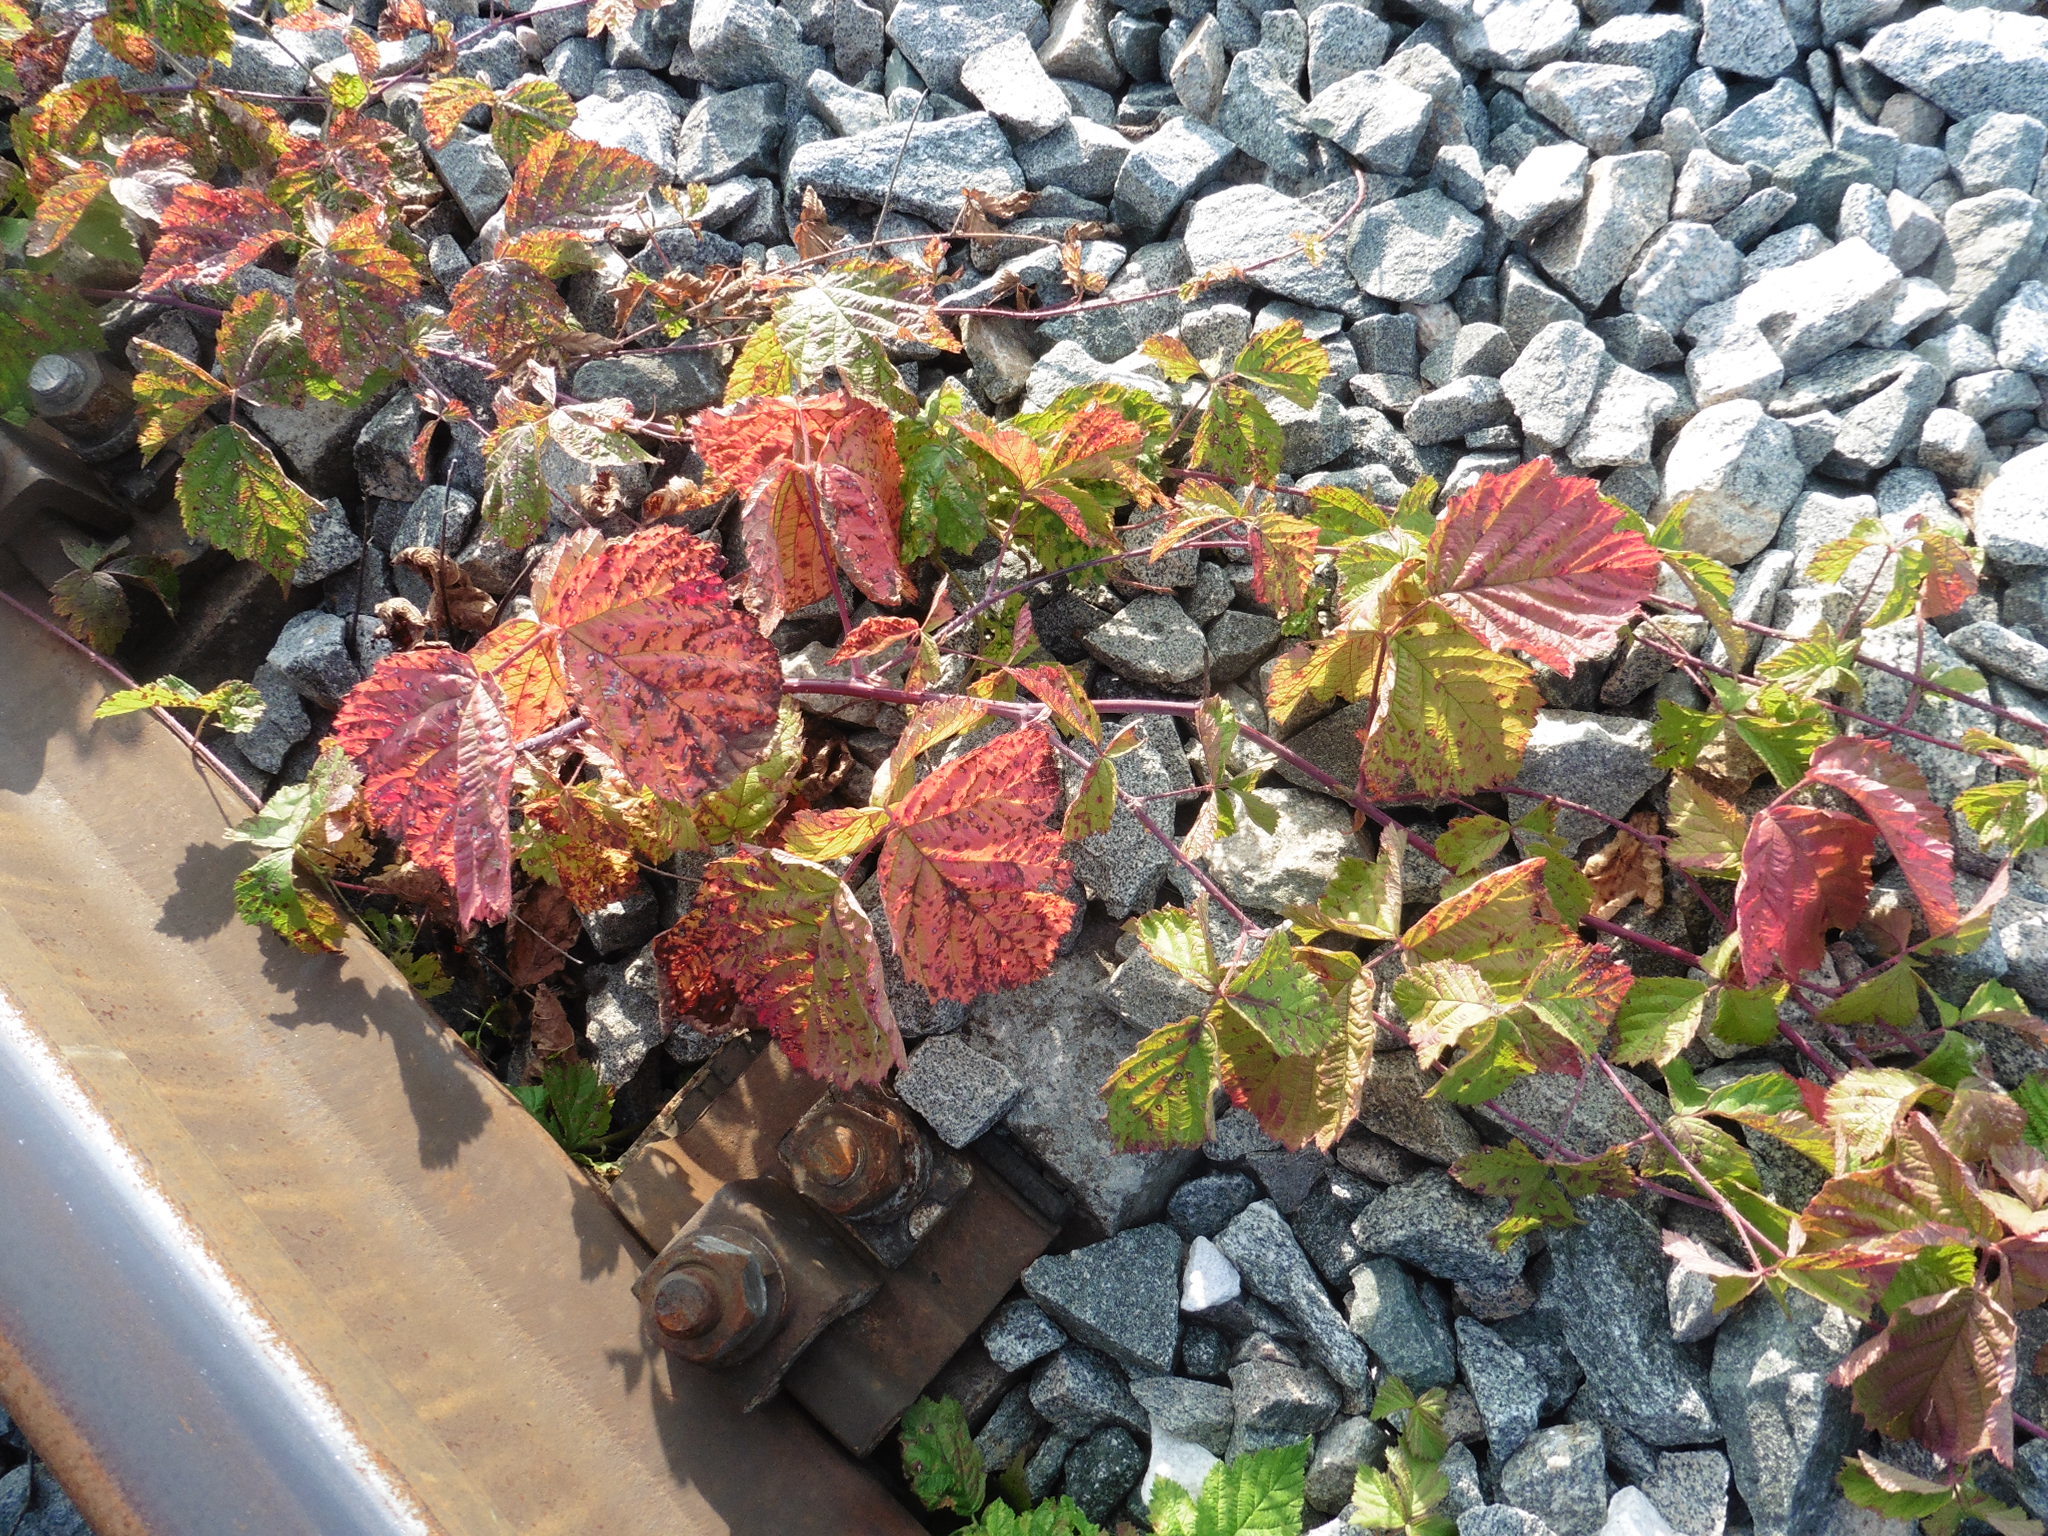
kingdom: Plantae
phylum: Tracheophyta
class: Magnoliopsida
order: Rosales
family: Rosaceae
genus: Rubus
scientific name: Rubus caesius
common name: Dewberry
